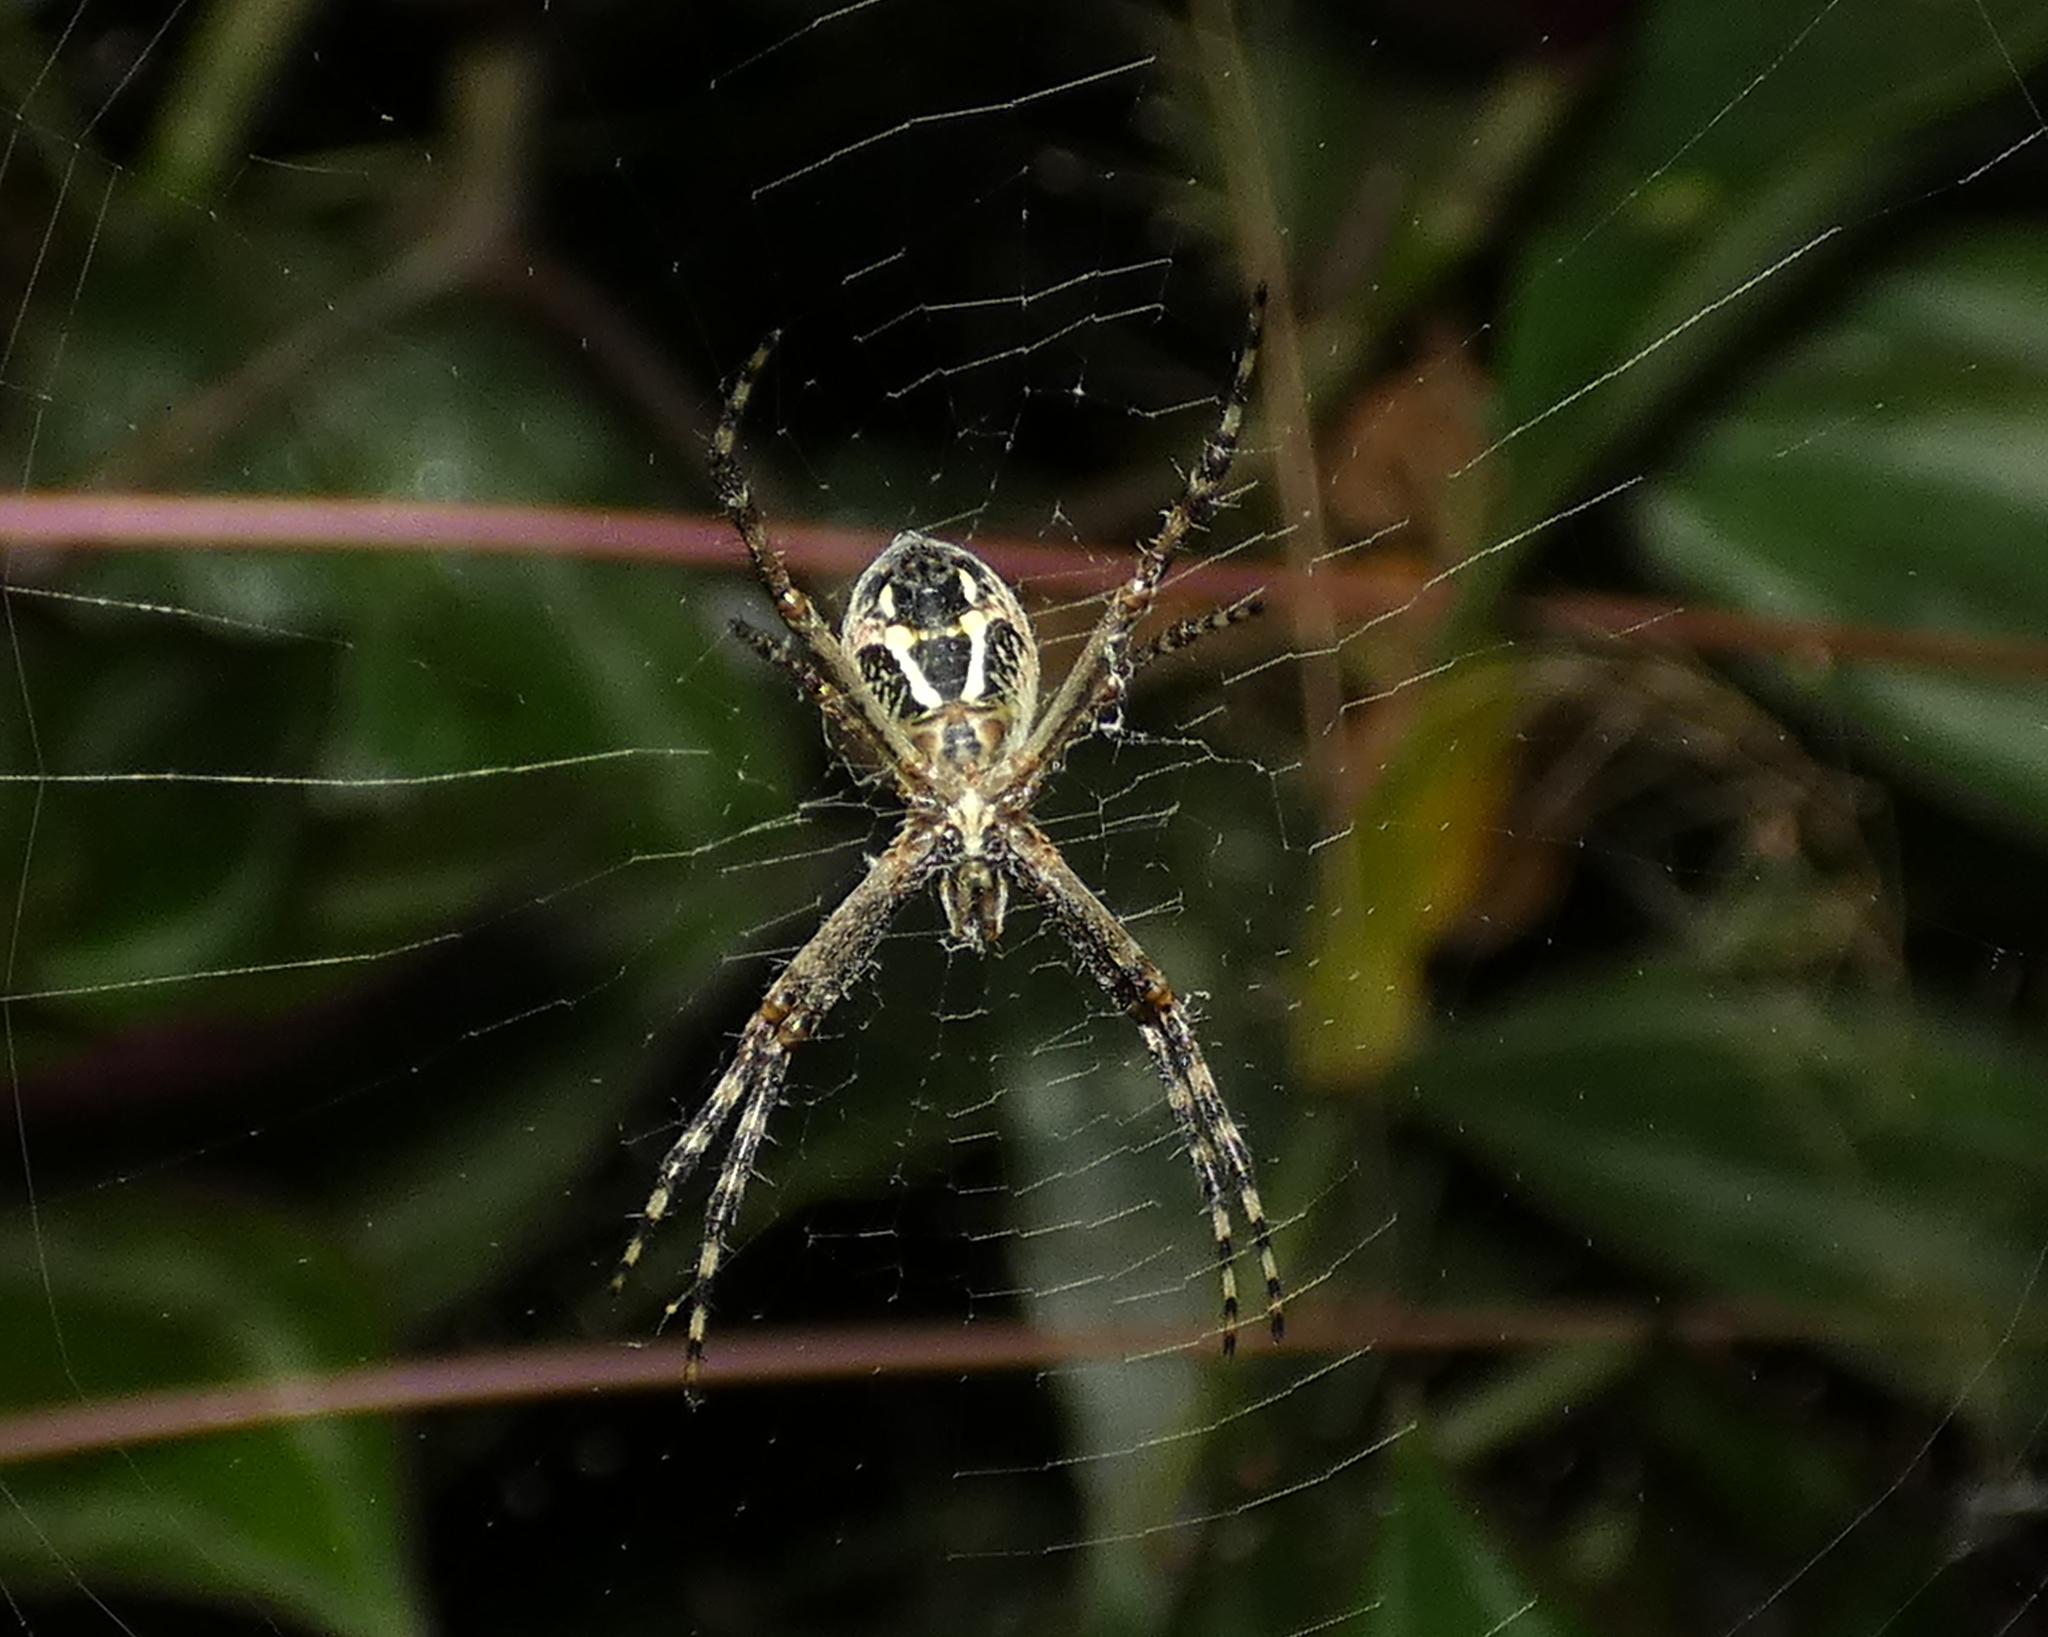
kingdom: Animalia
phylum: Arthropoda
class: Arachnida
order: Araneae
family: Araneidae
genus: Argiope
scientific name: Argiope argentata
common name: Orb weavers
